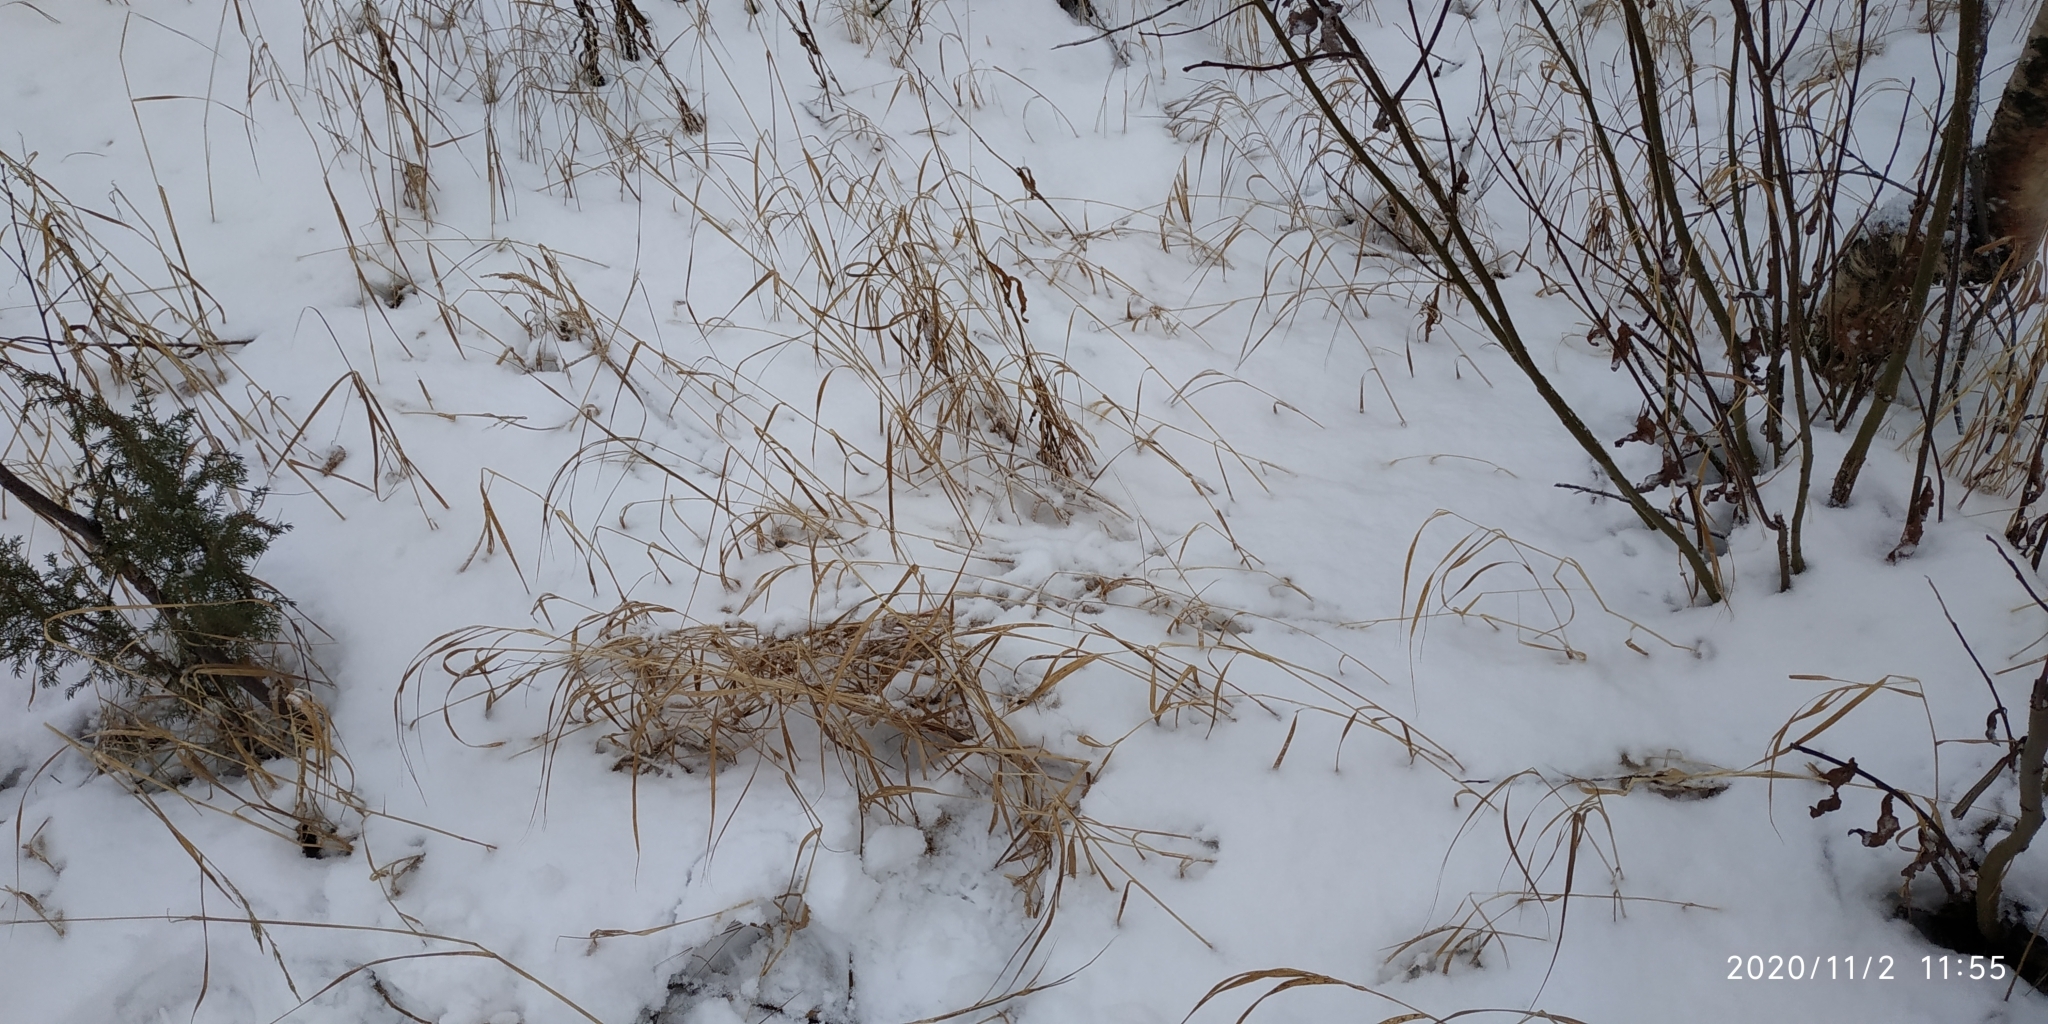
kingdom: Plantae
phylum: Tracheophyta
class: Liliopsida
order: Poales
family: Poaceae
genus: Calamagrostis
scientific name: Calamagrostis purpurea
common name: Scandinavian small-reed
